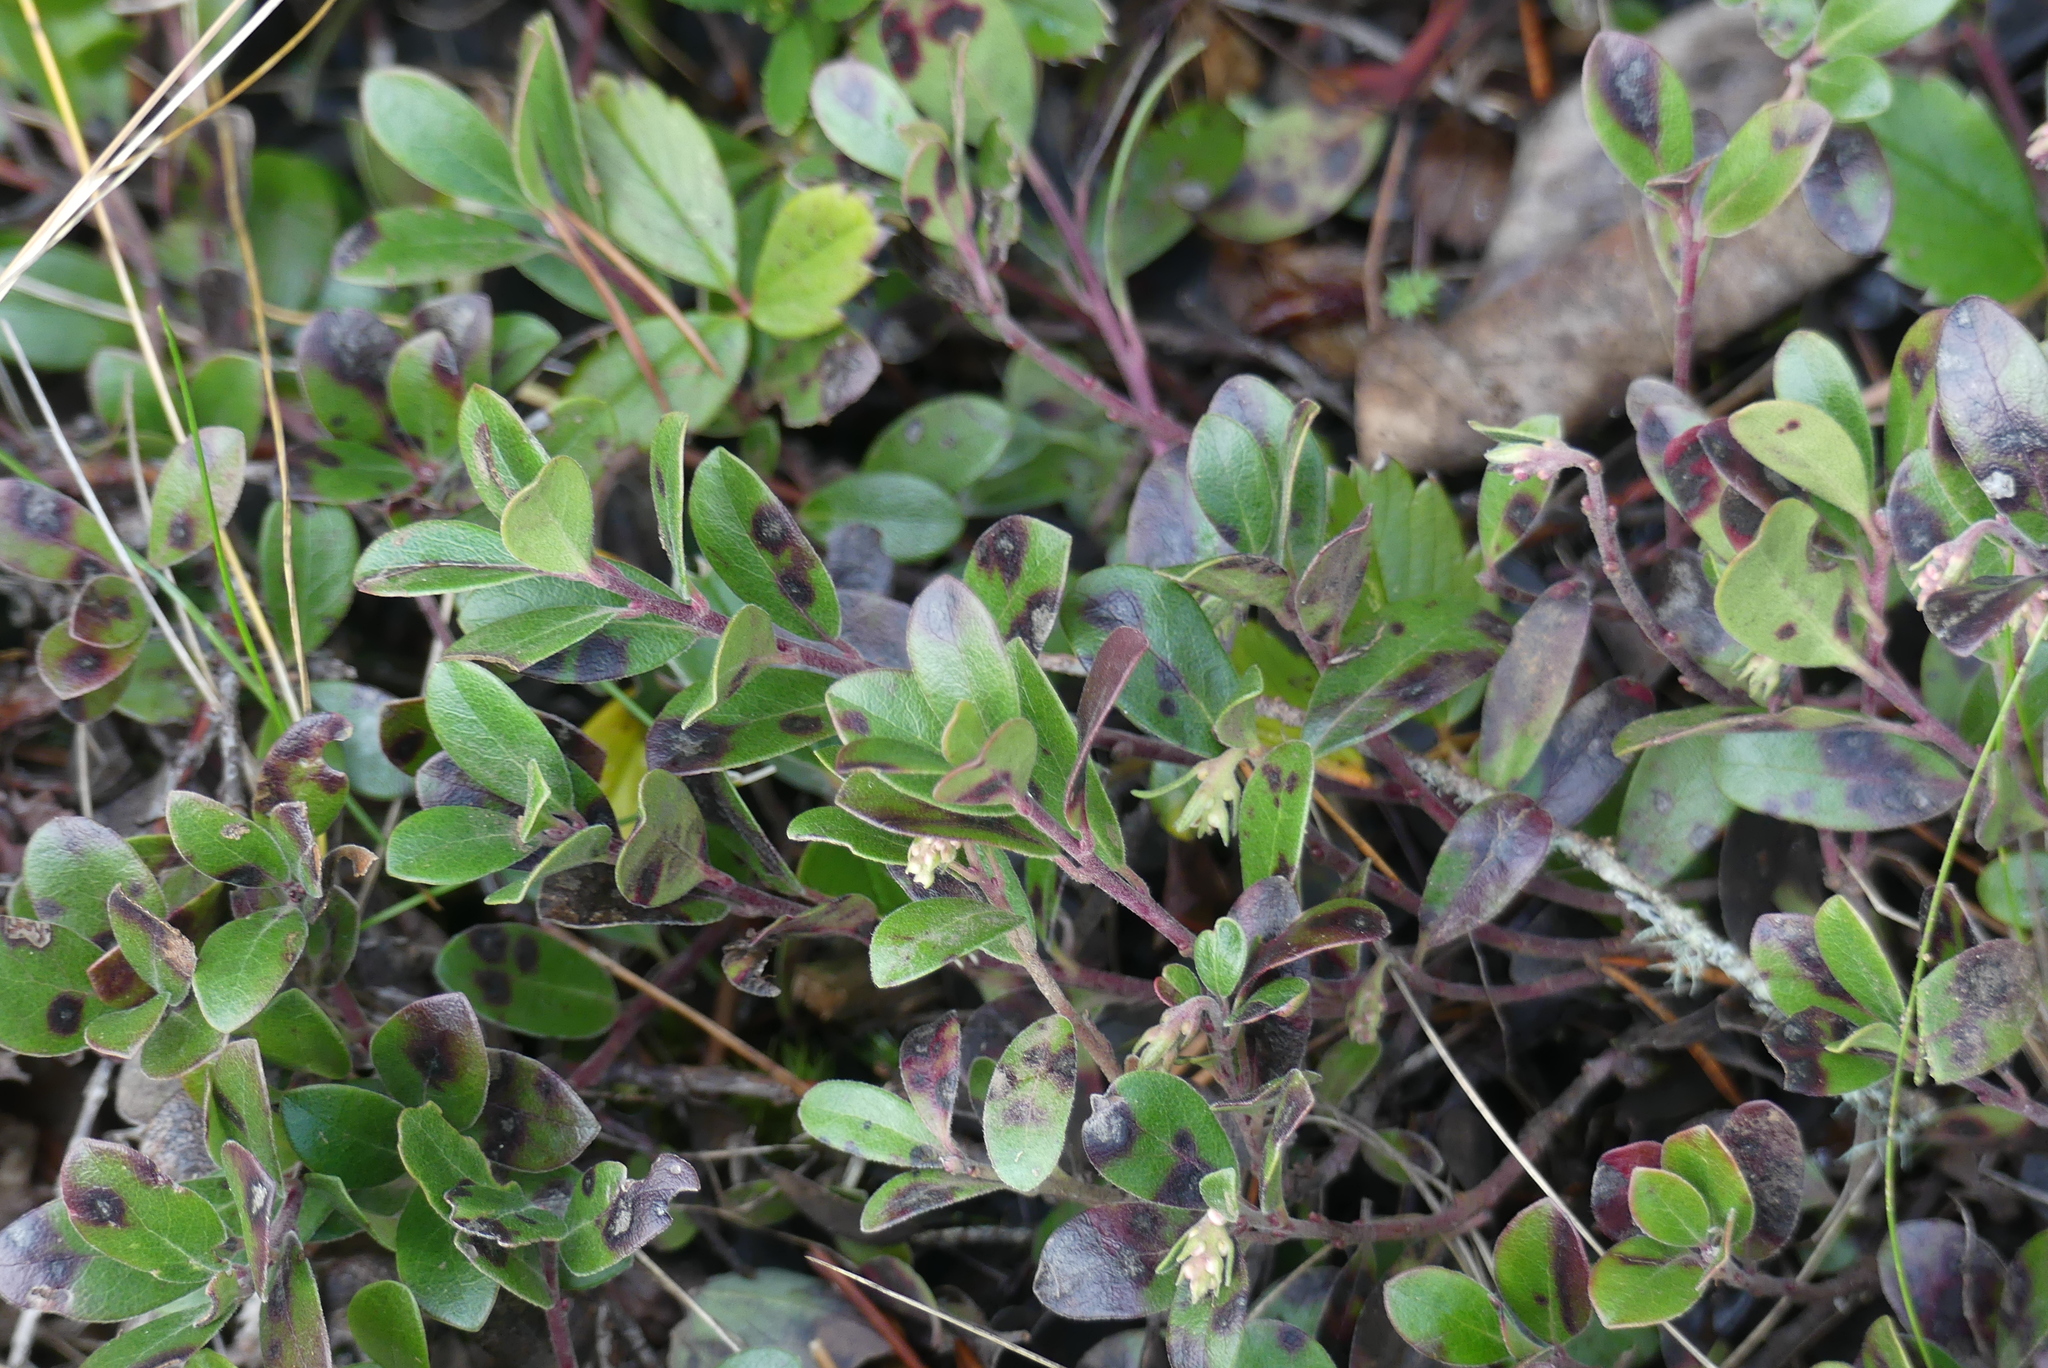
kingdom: Plantae
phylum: Tracheophyta
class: Magnoliopsida
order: Ericales
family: Ericaceae
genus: Arctostaphylos
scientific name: Arctostaphylos uva-ursi
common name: Bearberry
